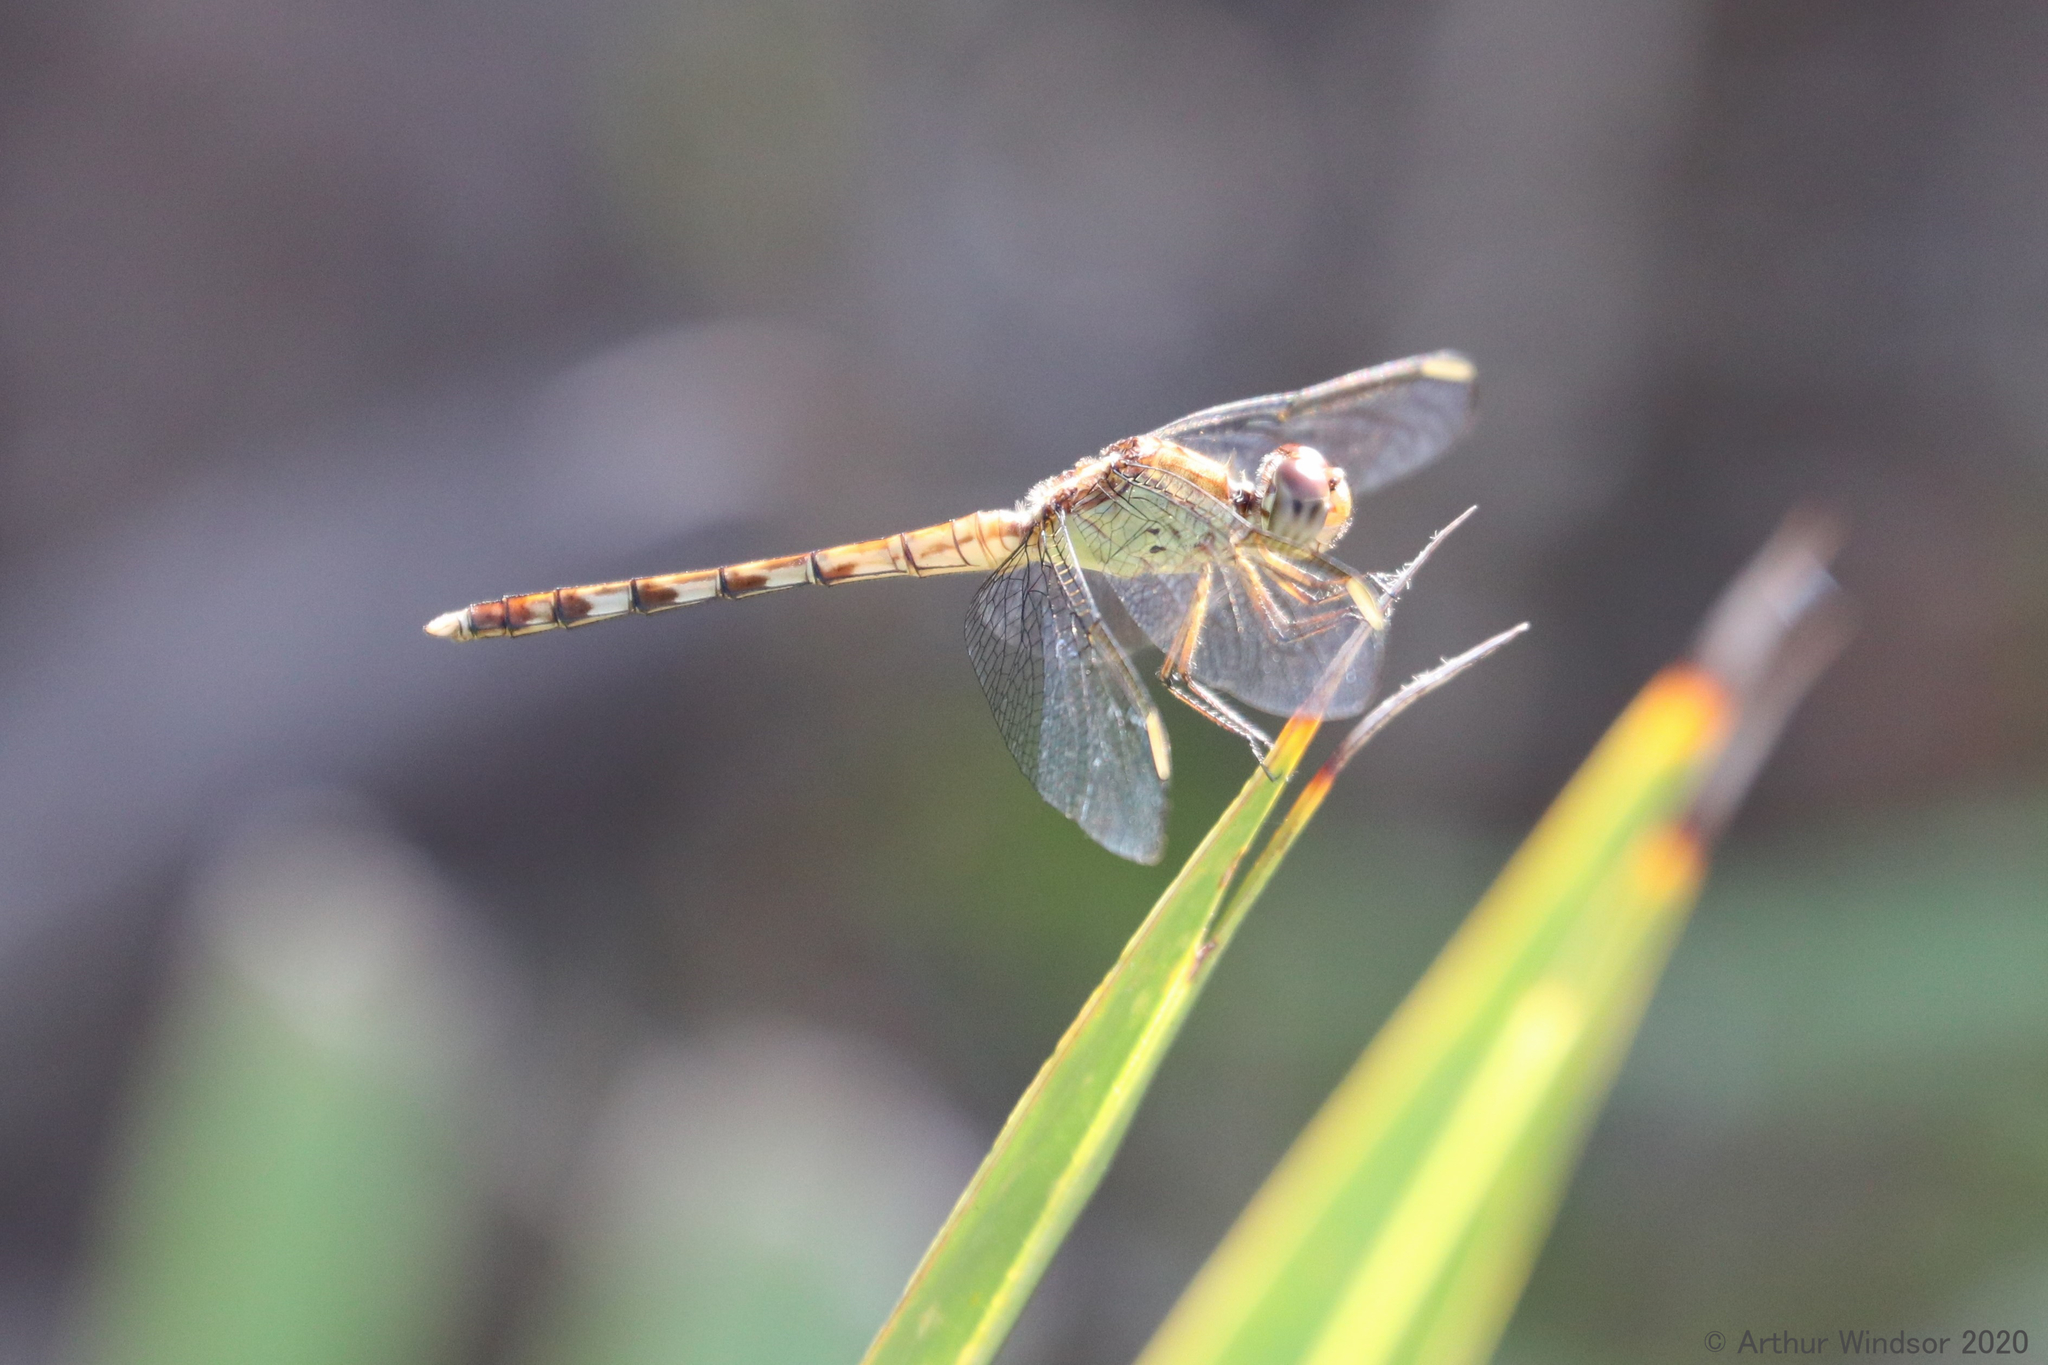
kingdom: Animalia
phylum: Arthropoda
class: Insecta
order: Odonata
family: Libellulidae
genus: Erythrodiplax
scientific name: Erythrodiplax umbrata
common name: Band-winged dragonlet
